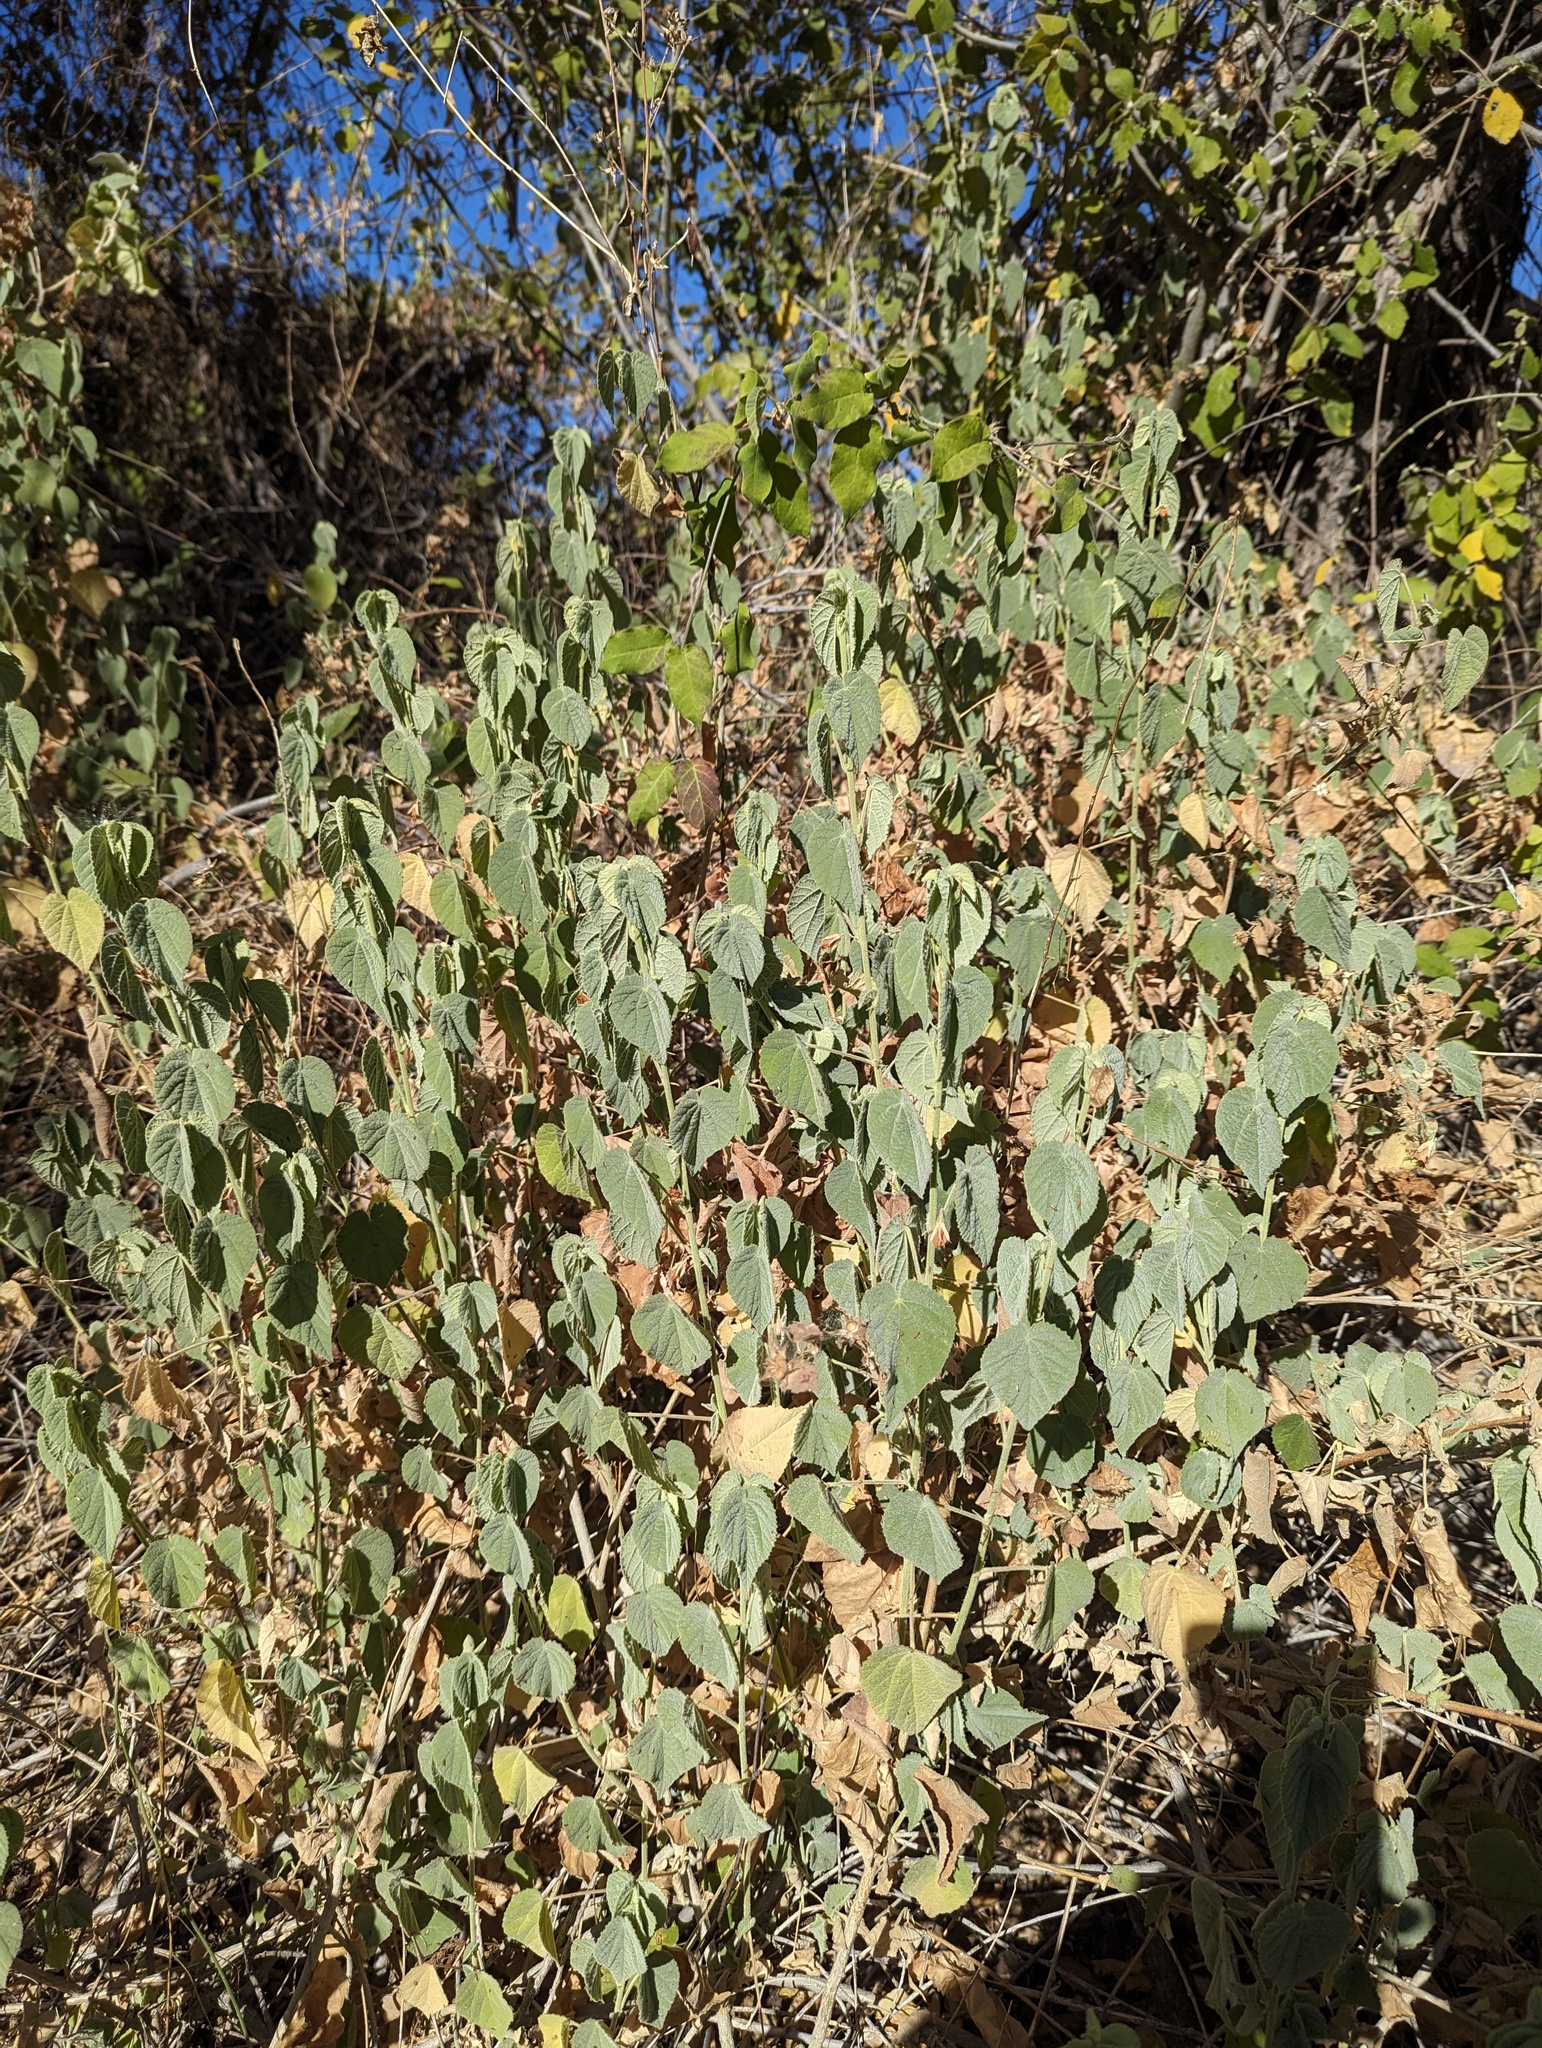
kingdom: Plantae
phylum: Tracheophyta
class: Magnoliopsida
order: Malvales
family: Malvaceae
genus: Abutilon
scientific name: Abutilon bivalve
